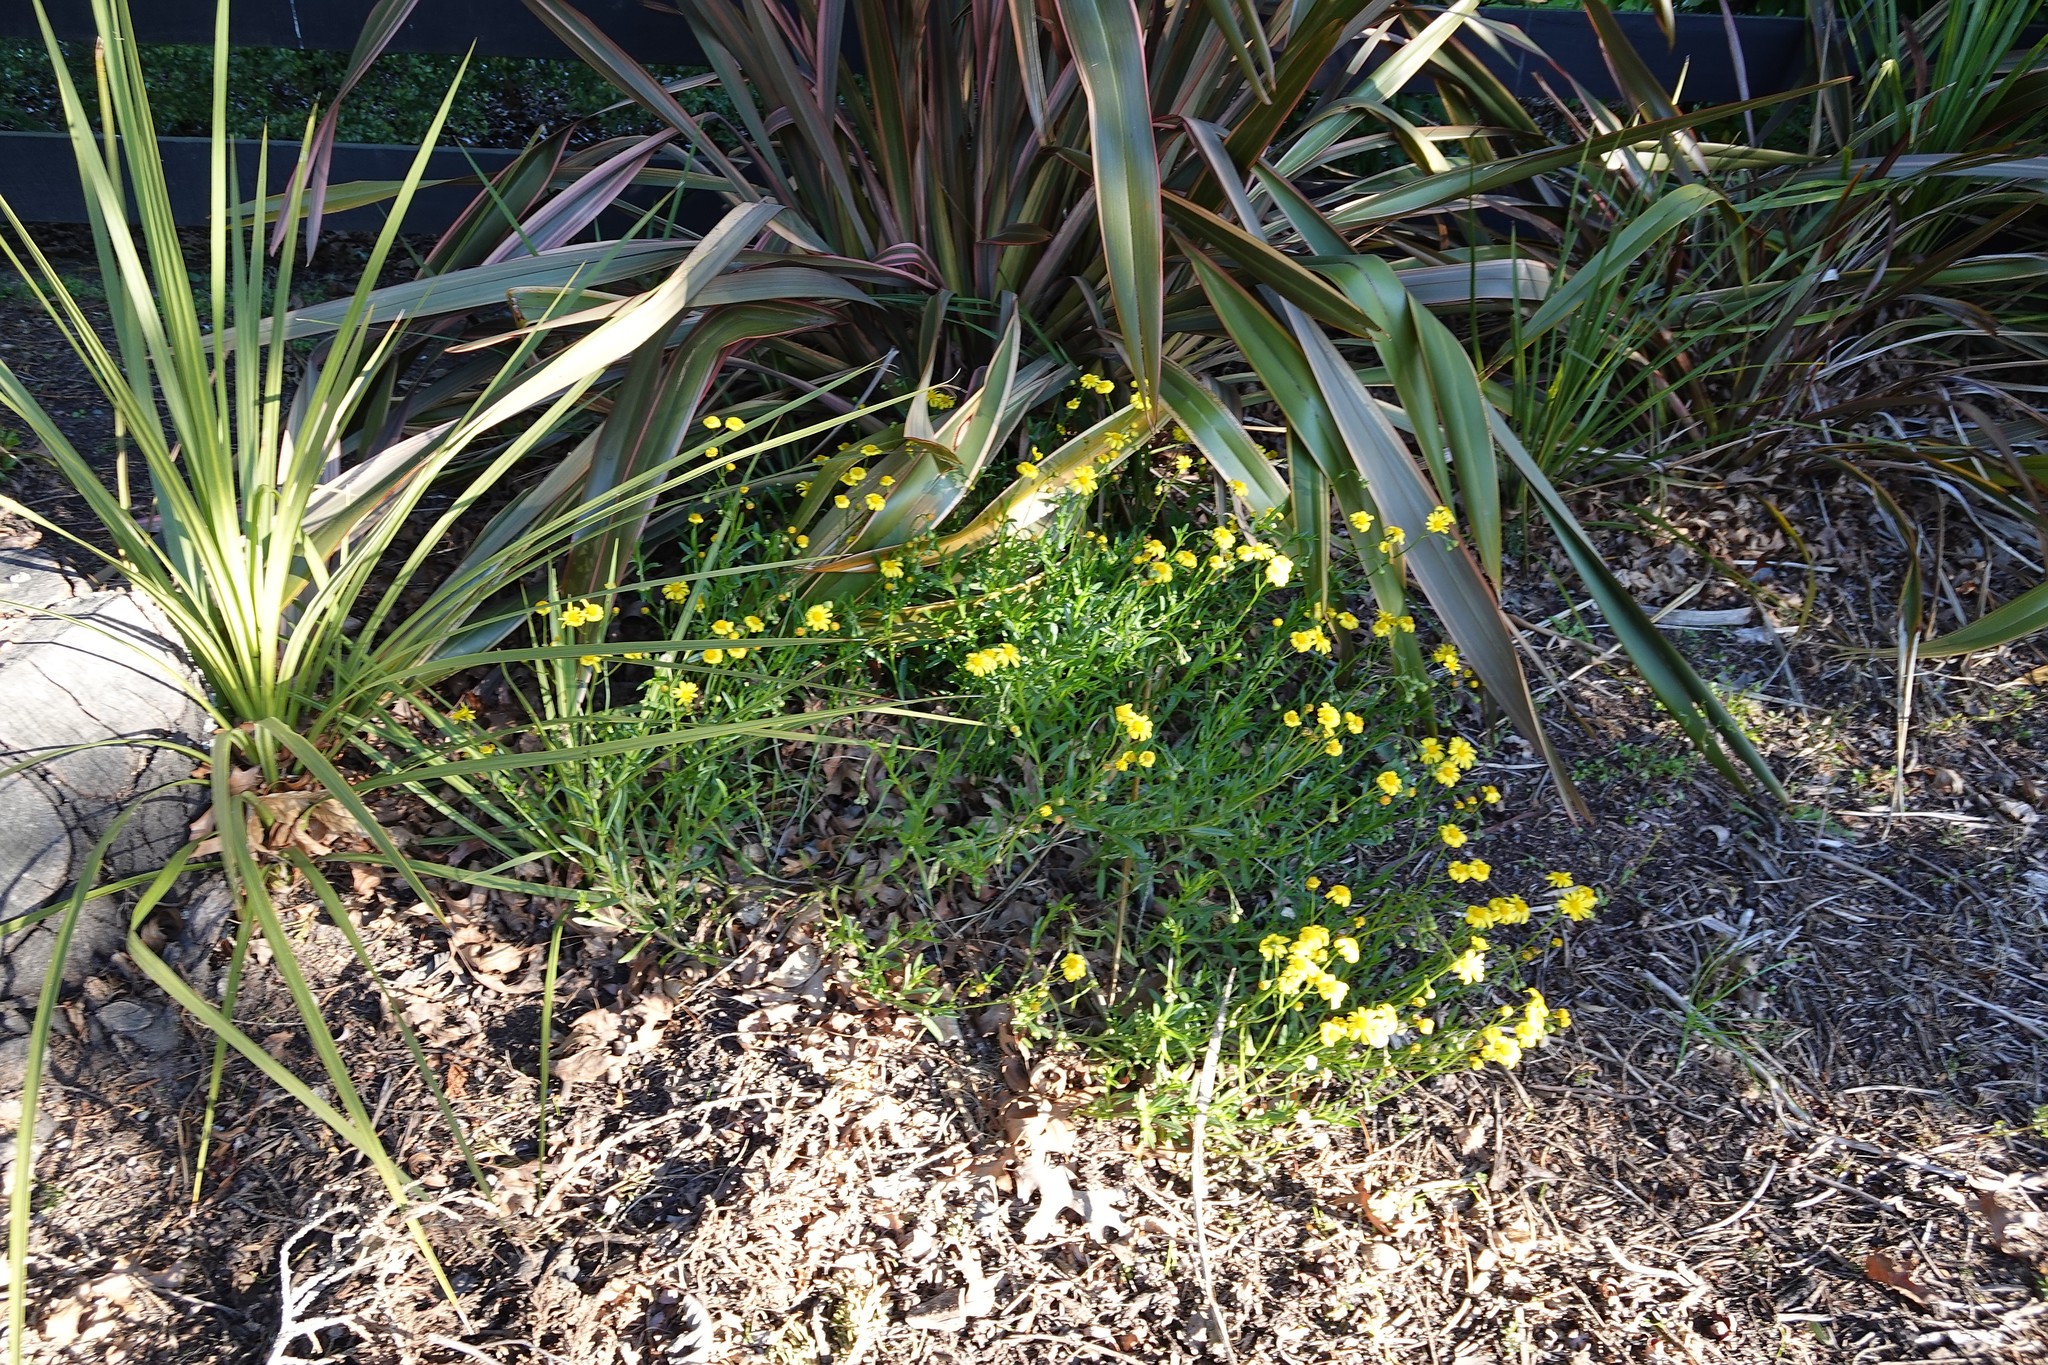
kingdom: Plantae
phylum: Tracheophyta
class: Magnoliopsida
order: Asterales
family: Asteraceae
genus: Senecio
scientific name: Senecio skirrhodon
